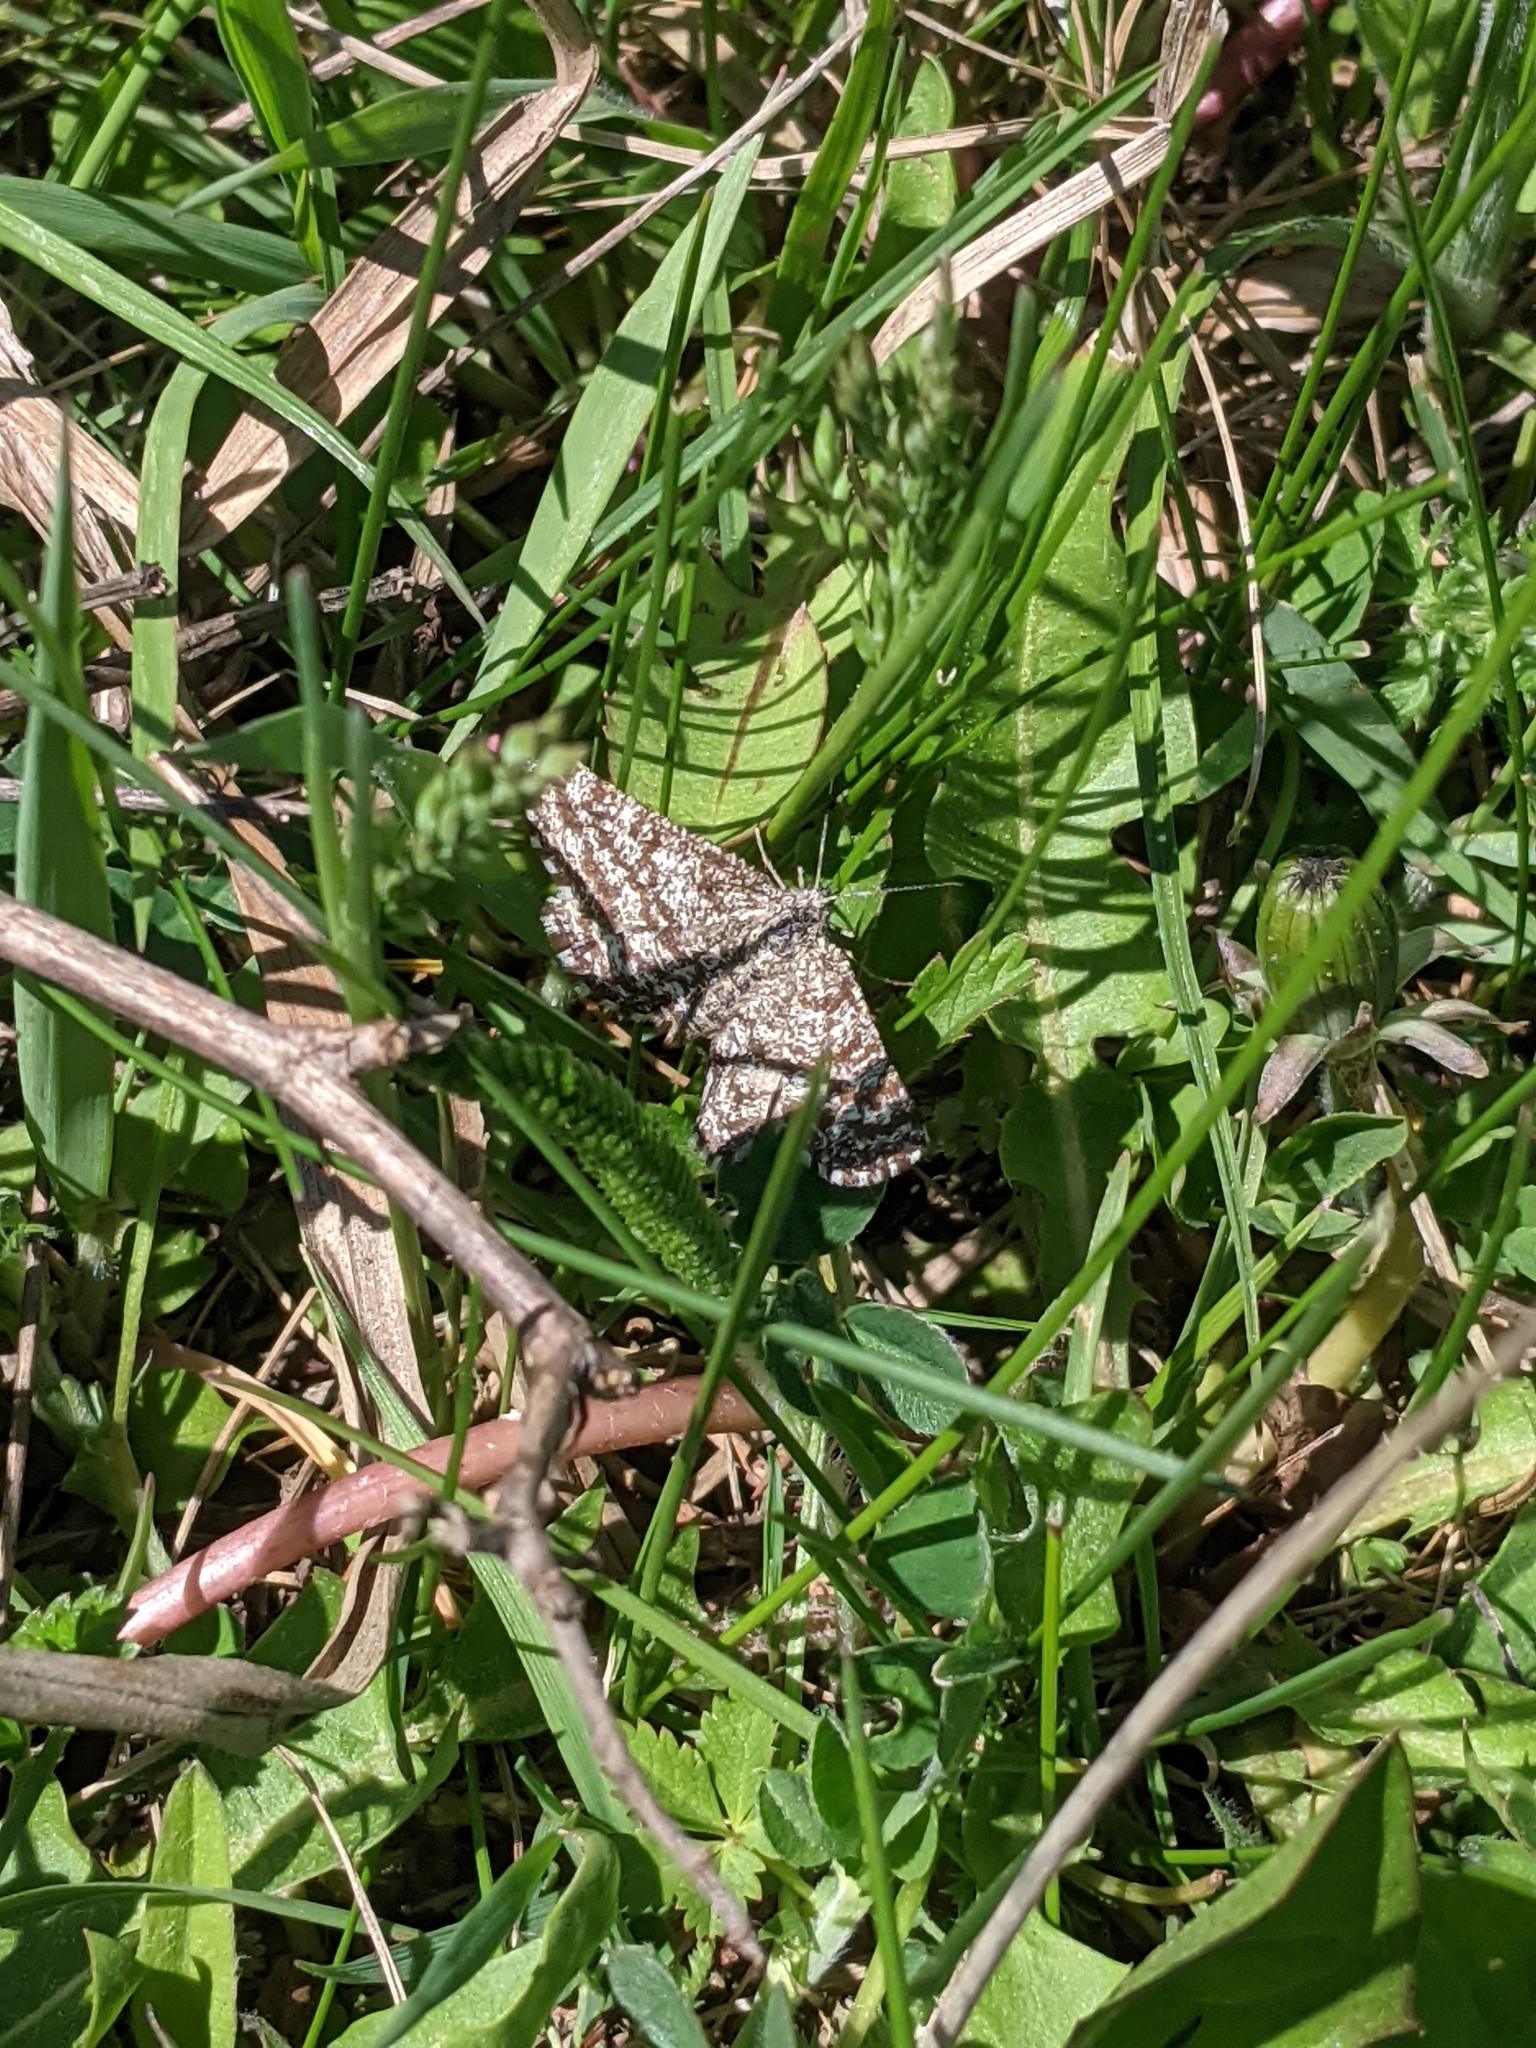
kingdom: Animalia
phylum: Arthropoda
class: Insecta
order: Lepidoptera
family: Geometridae
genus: Ematurga
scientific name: Ematurga atomaria
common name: Common heath
